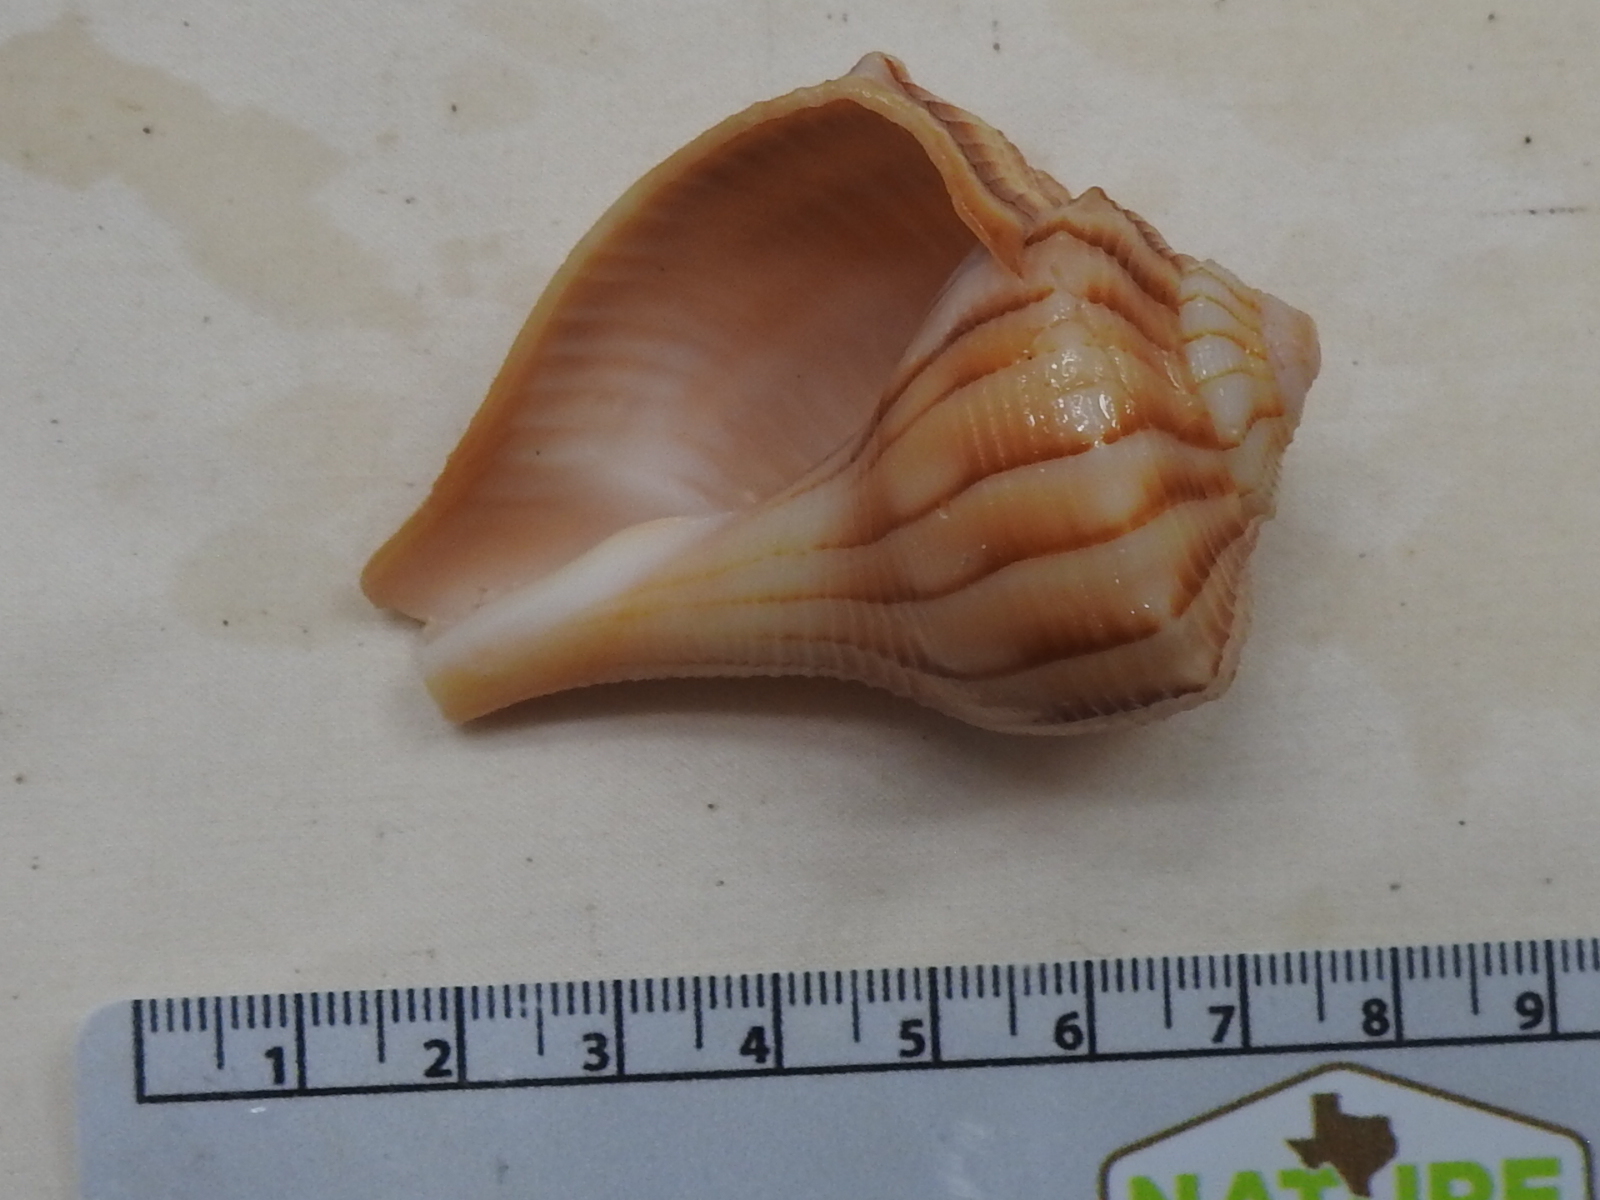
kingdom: Animalia
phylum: Mollusca
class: Gastropoda
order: Neogastropoda
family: Busyconidae
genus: Sinistrofulgur
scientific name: Sinistrofulgur sinistrum
